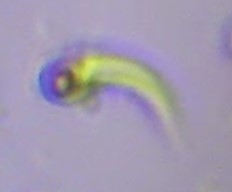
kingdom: Plantae
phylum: Chlorophyta
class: Chlorophyceae
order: Sphaeropleales
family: Selenastraceae
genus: Monoraphidium
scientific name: Monoraphidium contortum
